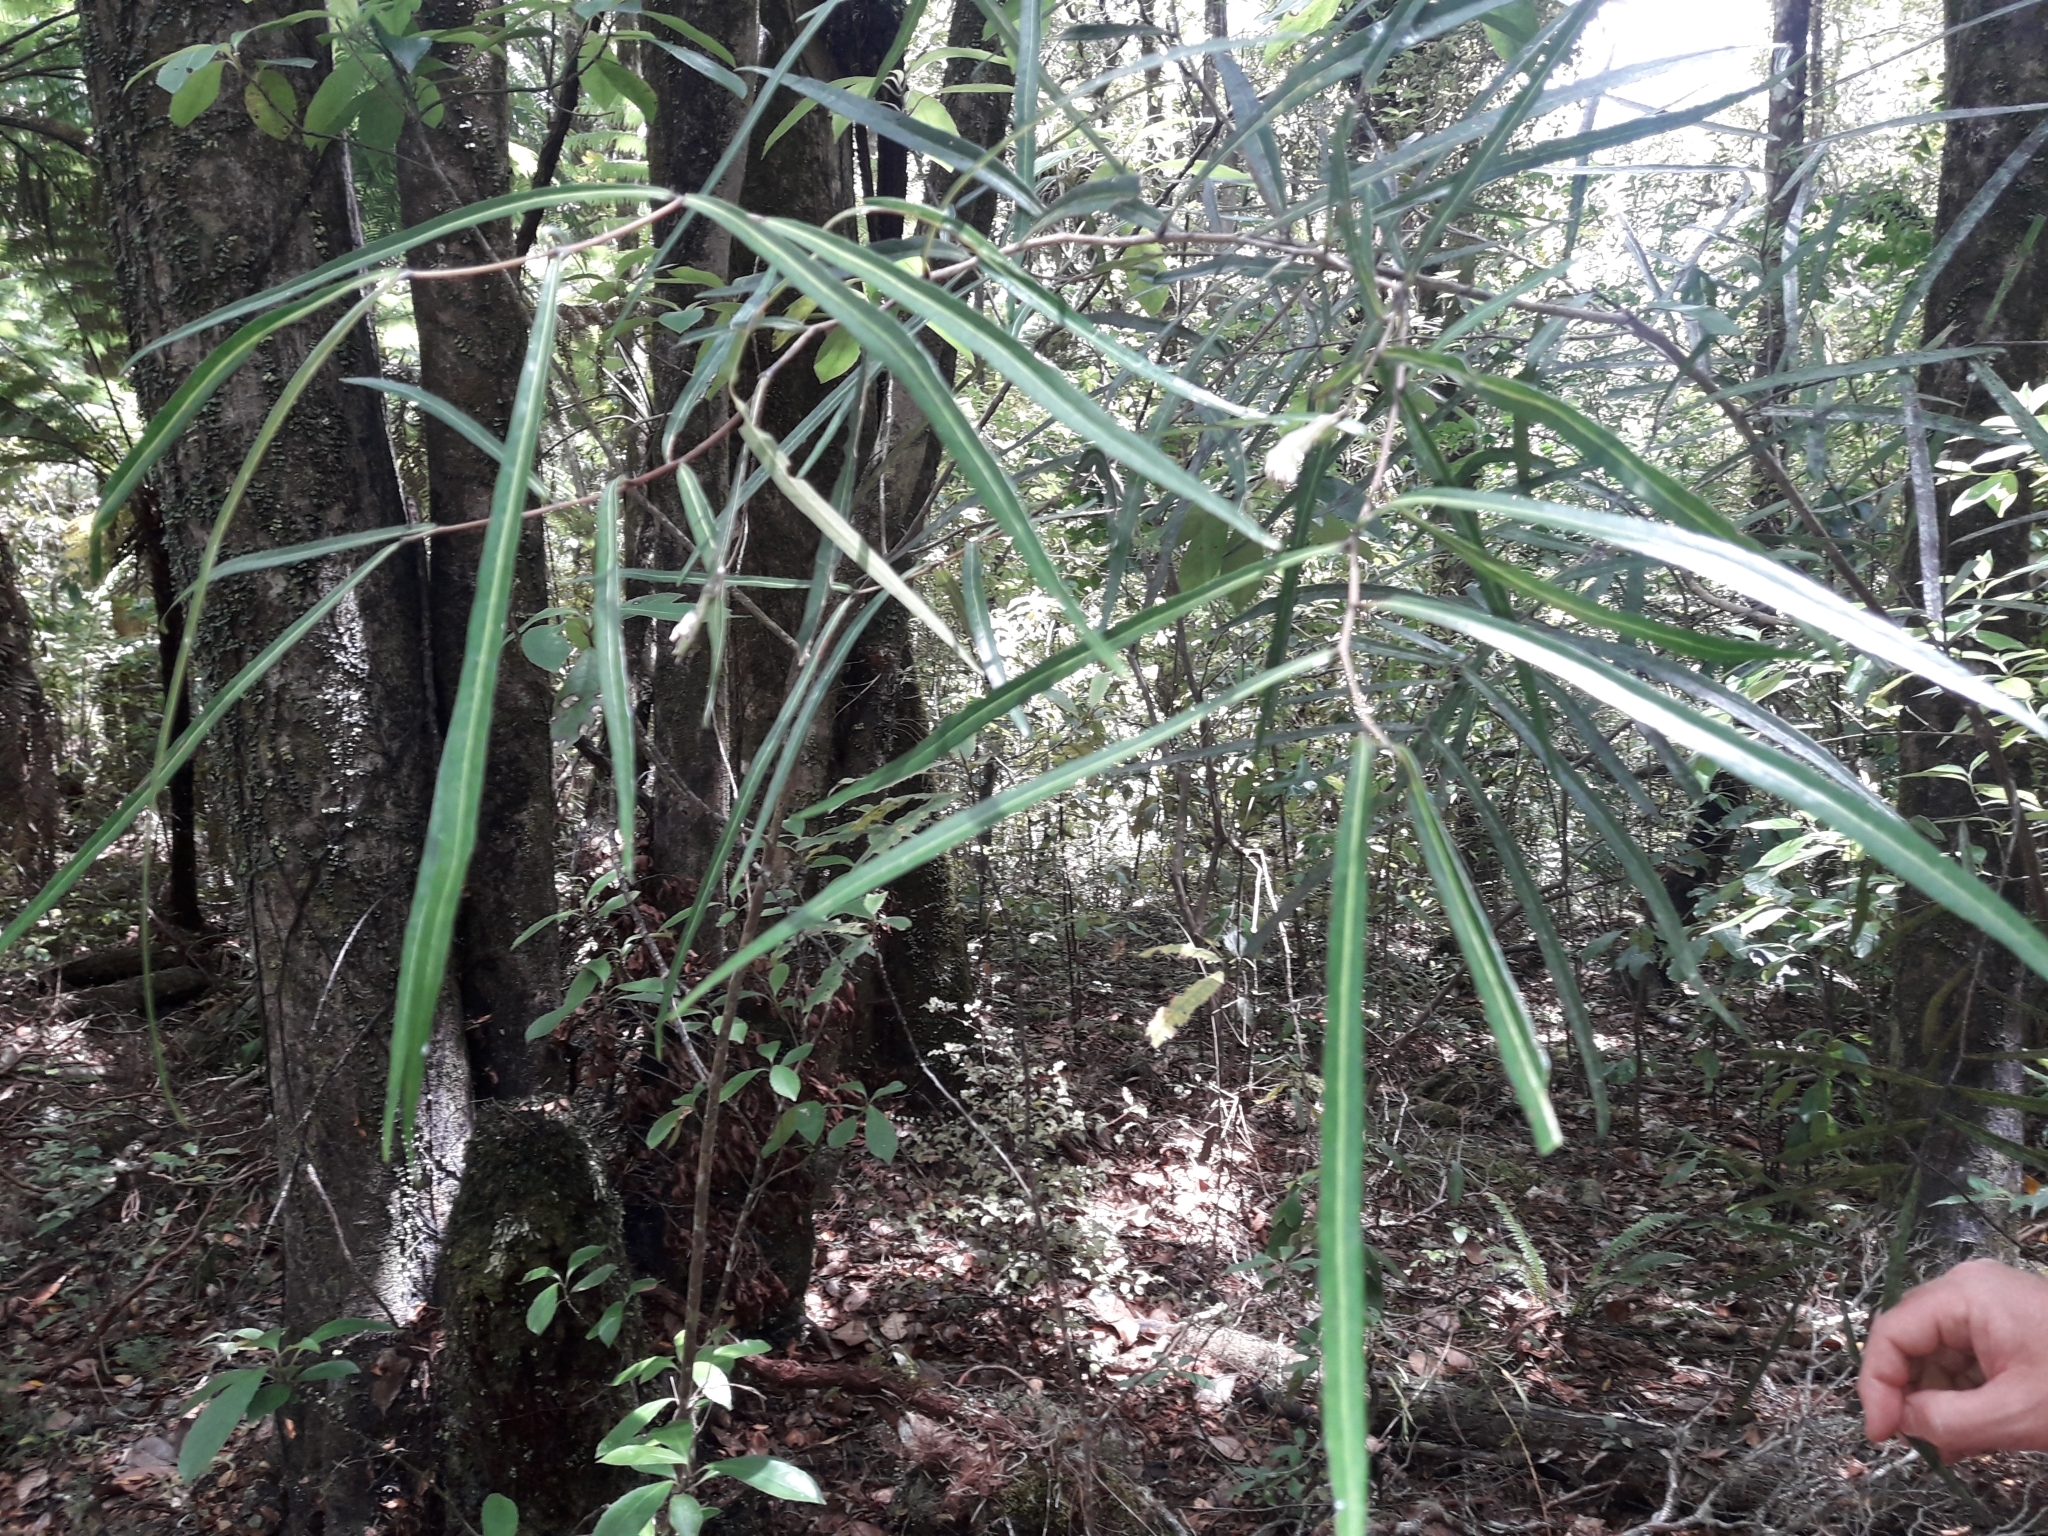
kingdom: Plantae
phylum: Tracheophyta
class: Magnoliopsida
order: Santalales
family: Nanodeaceae
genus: Mida
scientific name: Mida salicifolia
